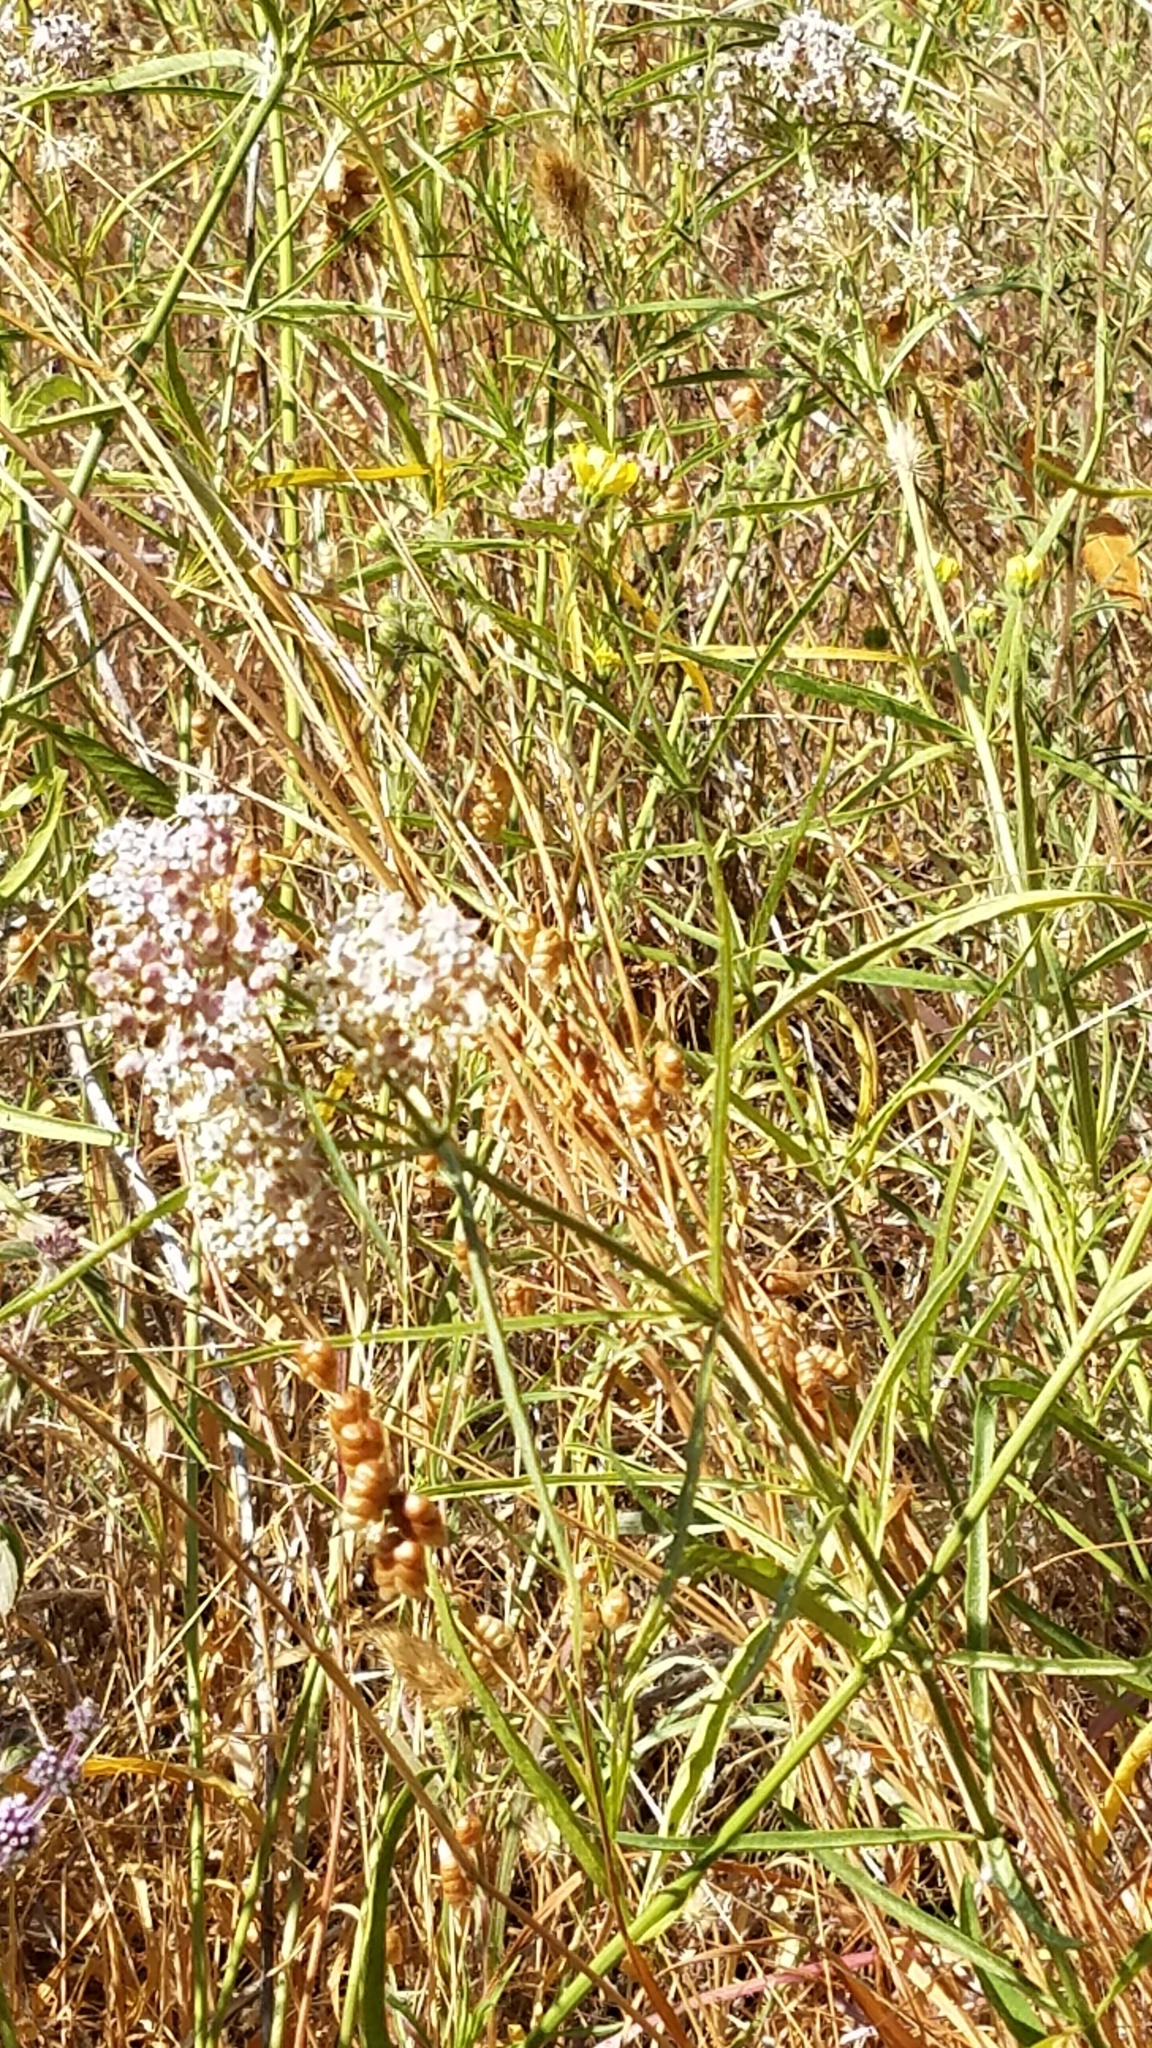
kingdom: Plantae
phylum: Tracheophyta
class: Magnoliopsida
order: Gentianales
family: Apocynaceae
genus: Asclepias
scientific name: Asclepias fascicularis
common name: Mexican milkweed
